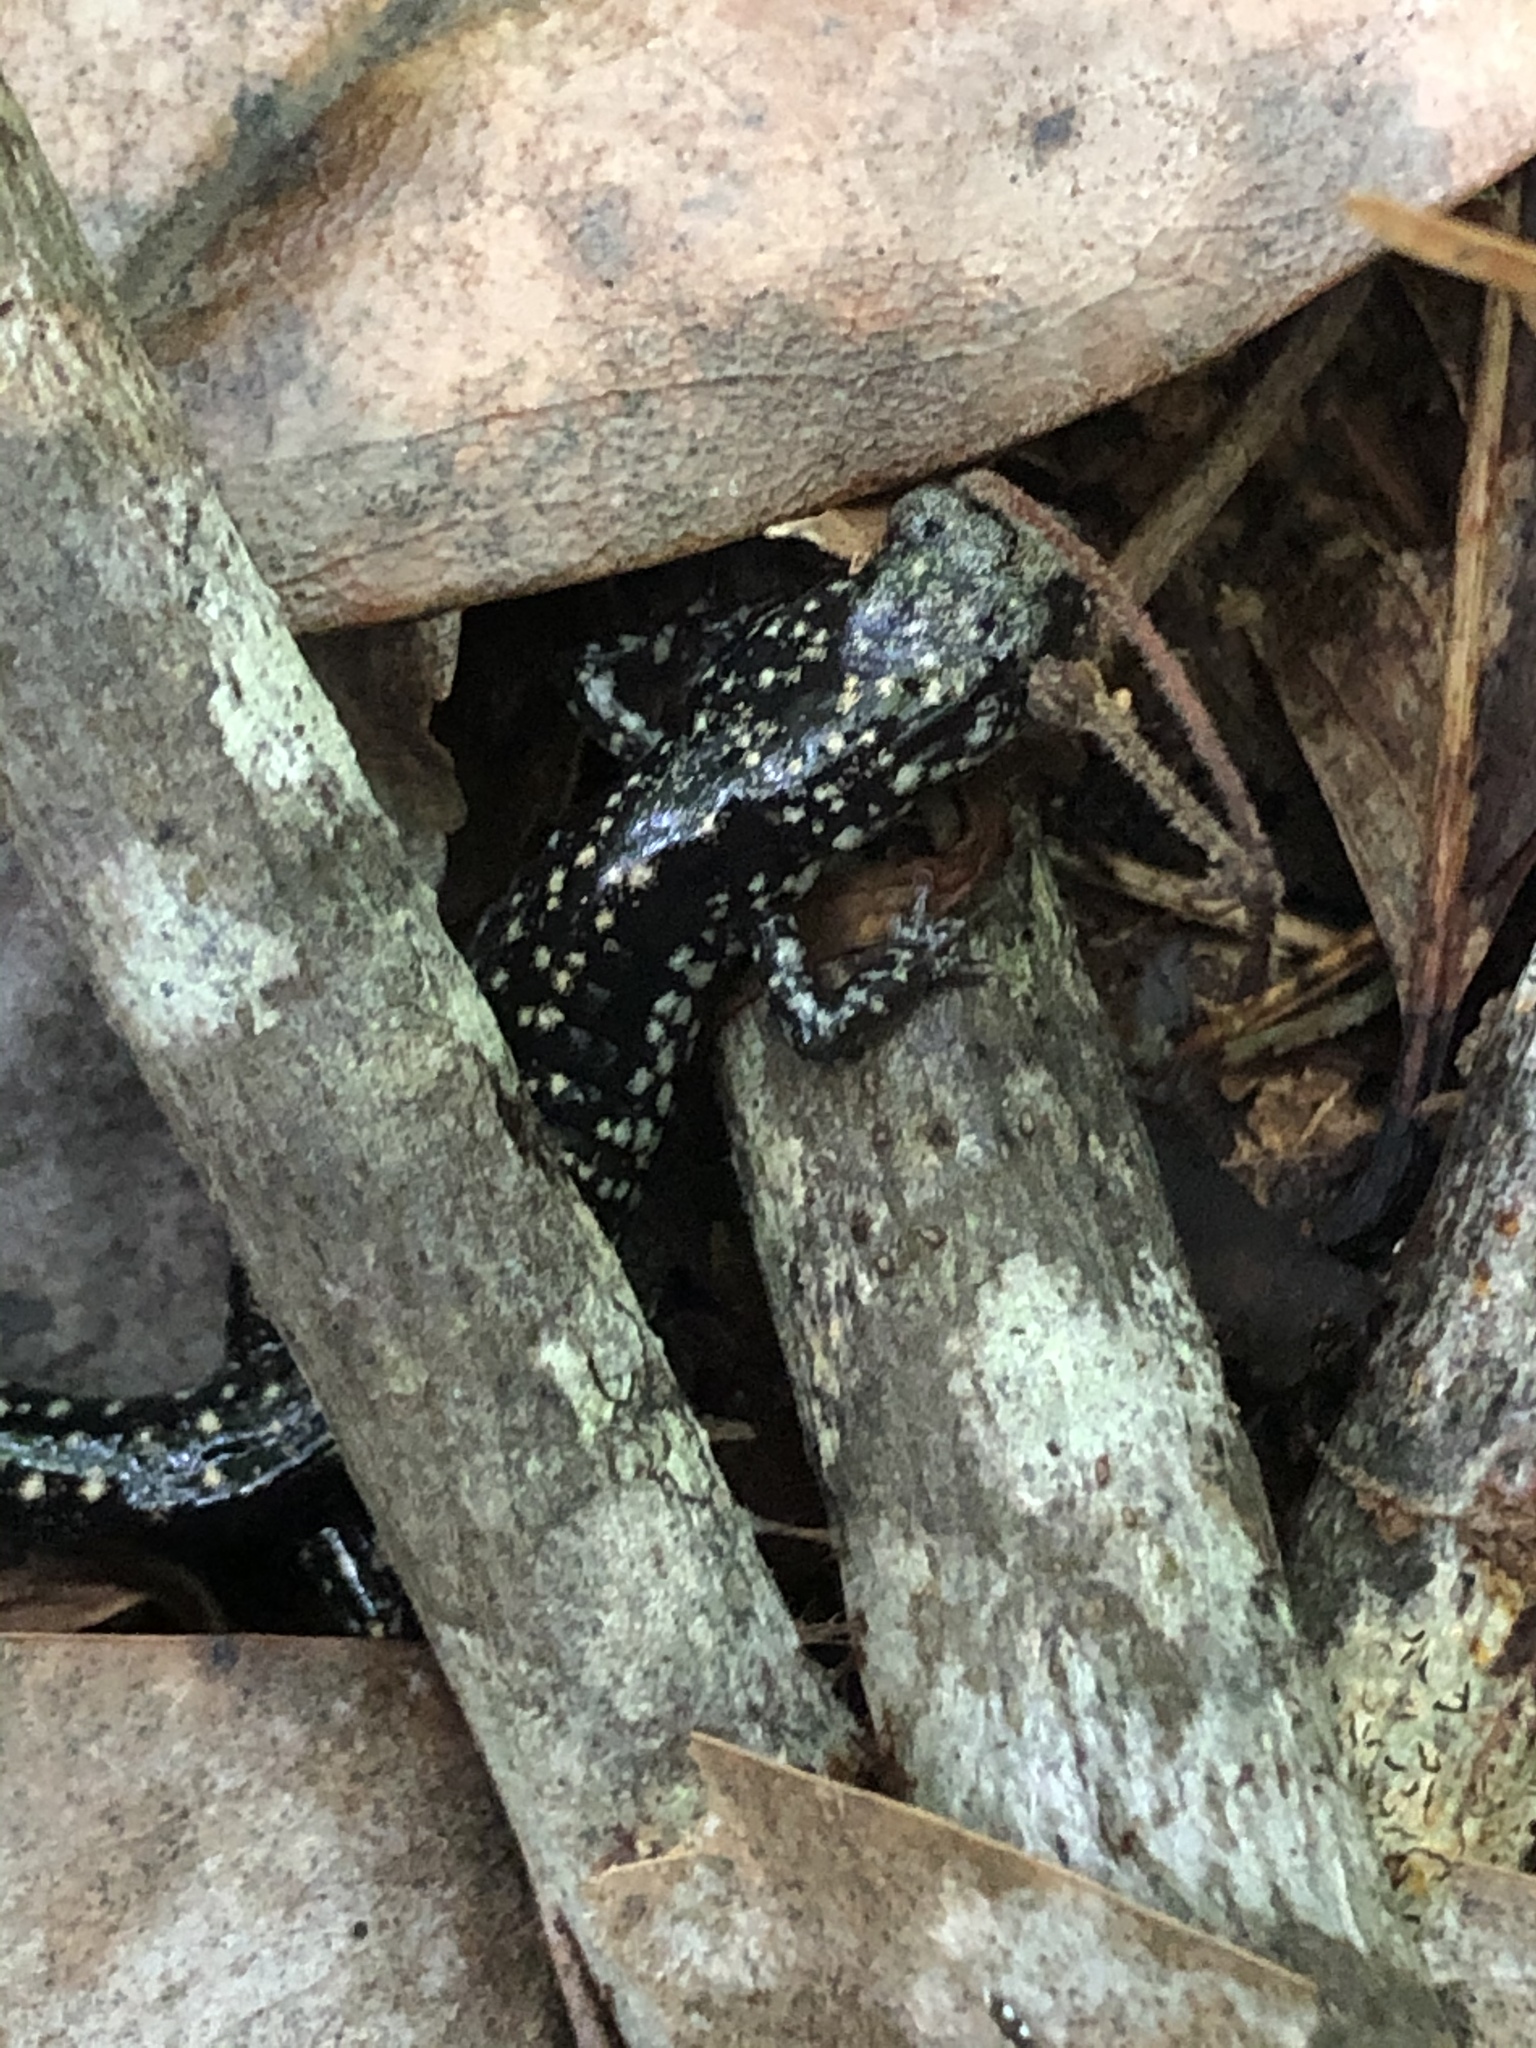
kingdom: Animalia
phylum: Chordata
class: Amphibia
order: Caudata
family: Plethodontidae
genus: Plethodon
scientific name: Plethodon mississippi
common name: Mississippi slimy salamander
